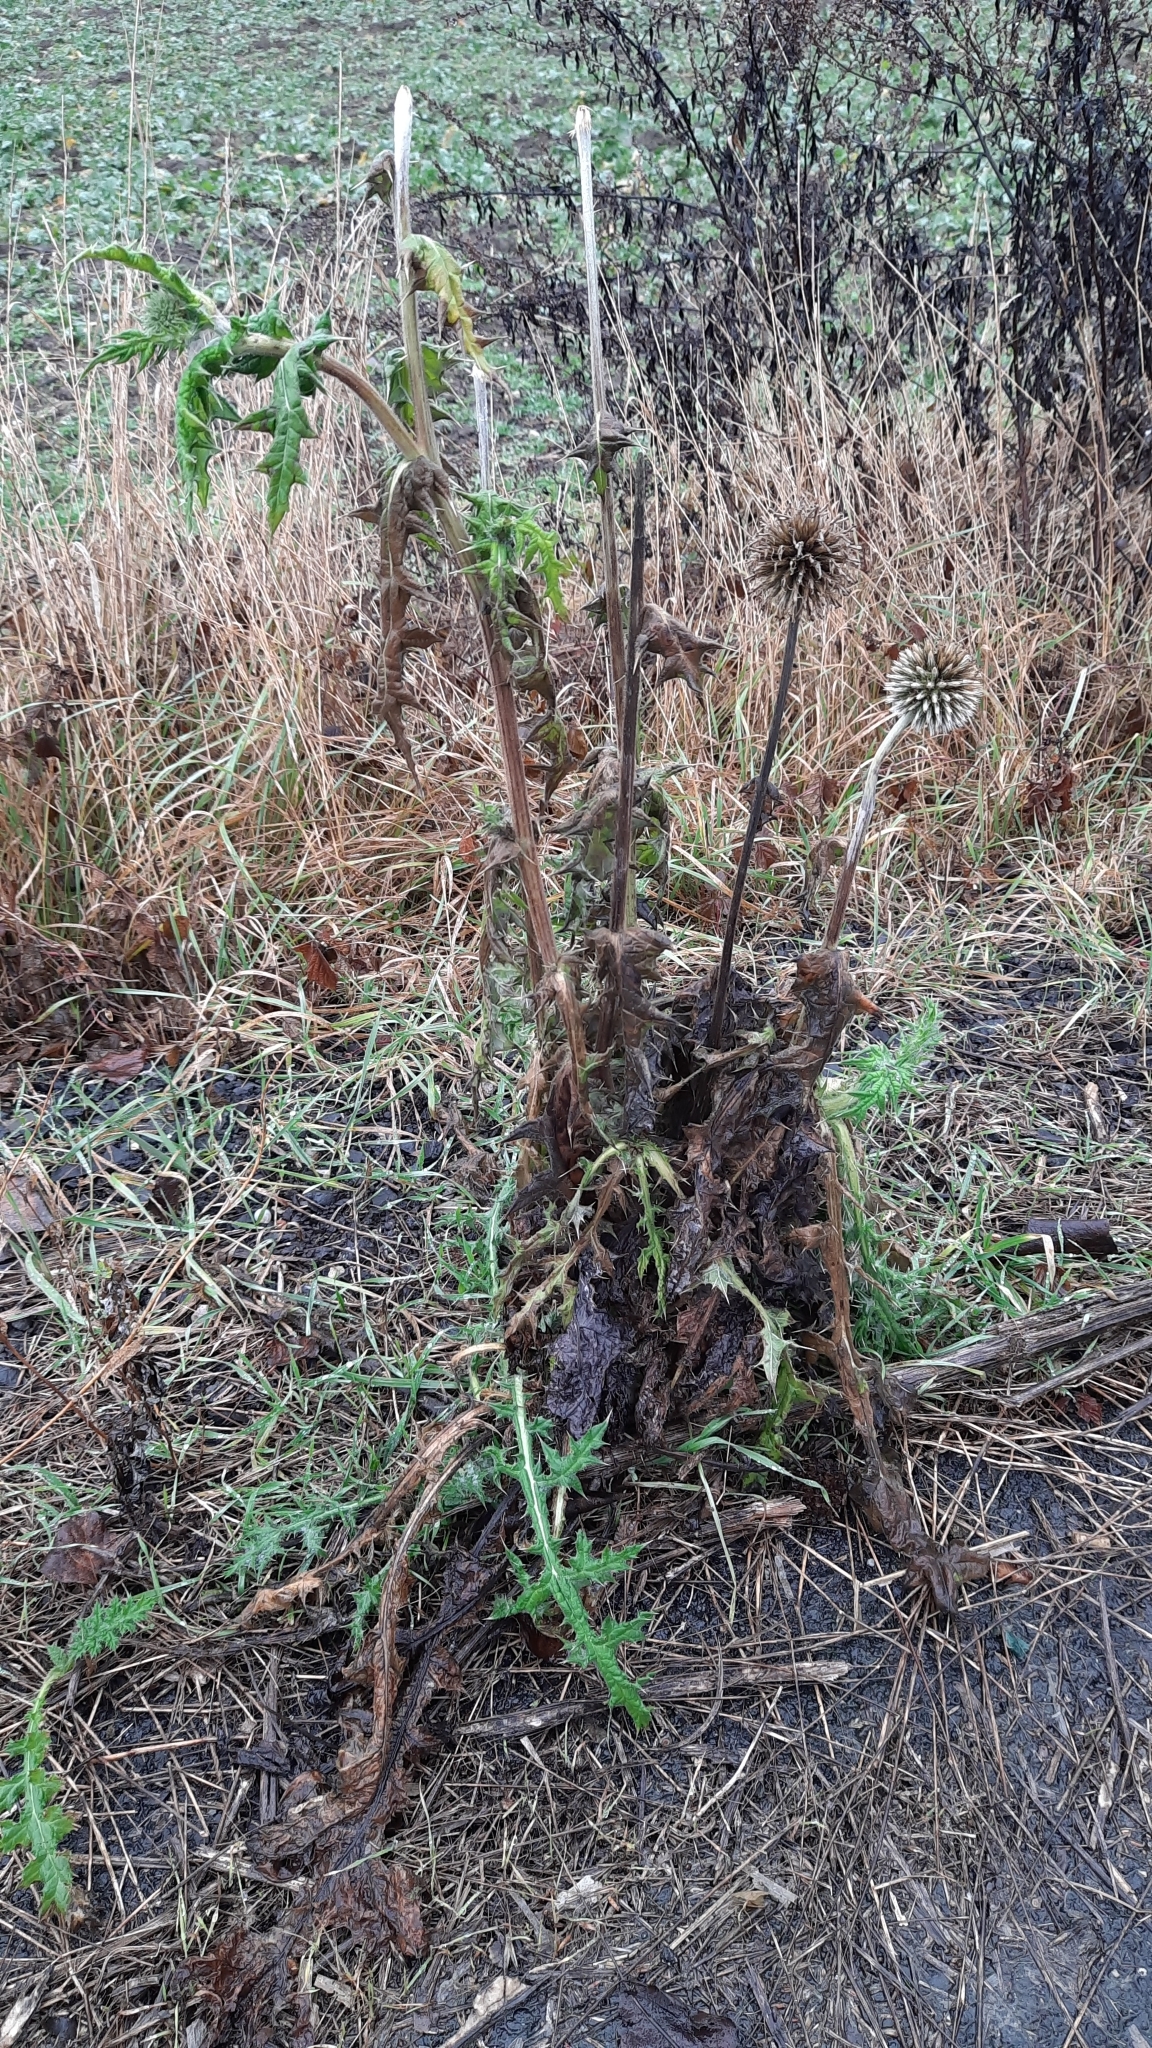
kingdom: Plantae
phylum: Tracheophyta
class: Magnoliopsida
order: Asterales
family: Asteraceae
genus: Echinops
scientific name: Echinops sphaerocephalus
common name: Glandular globe-thistle
